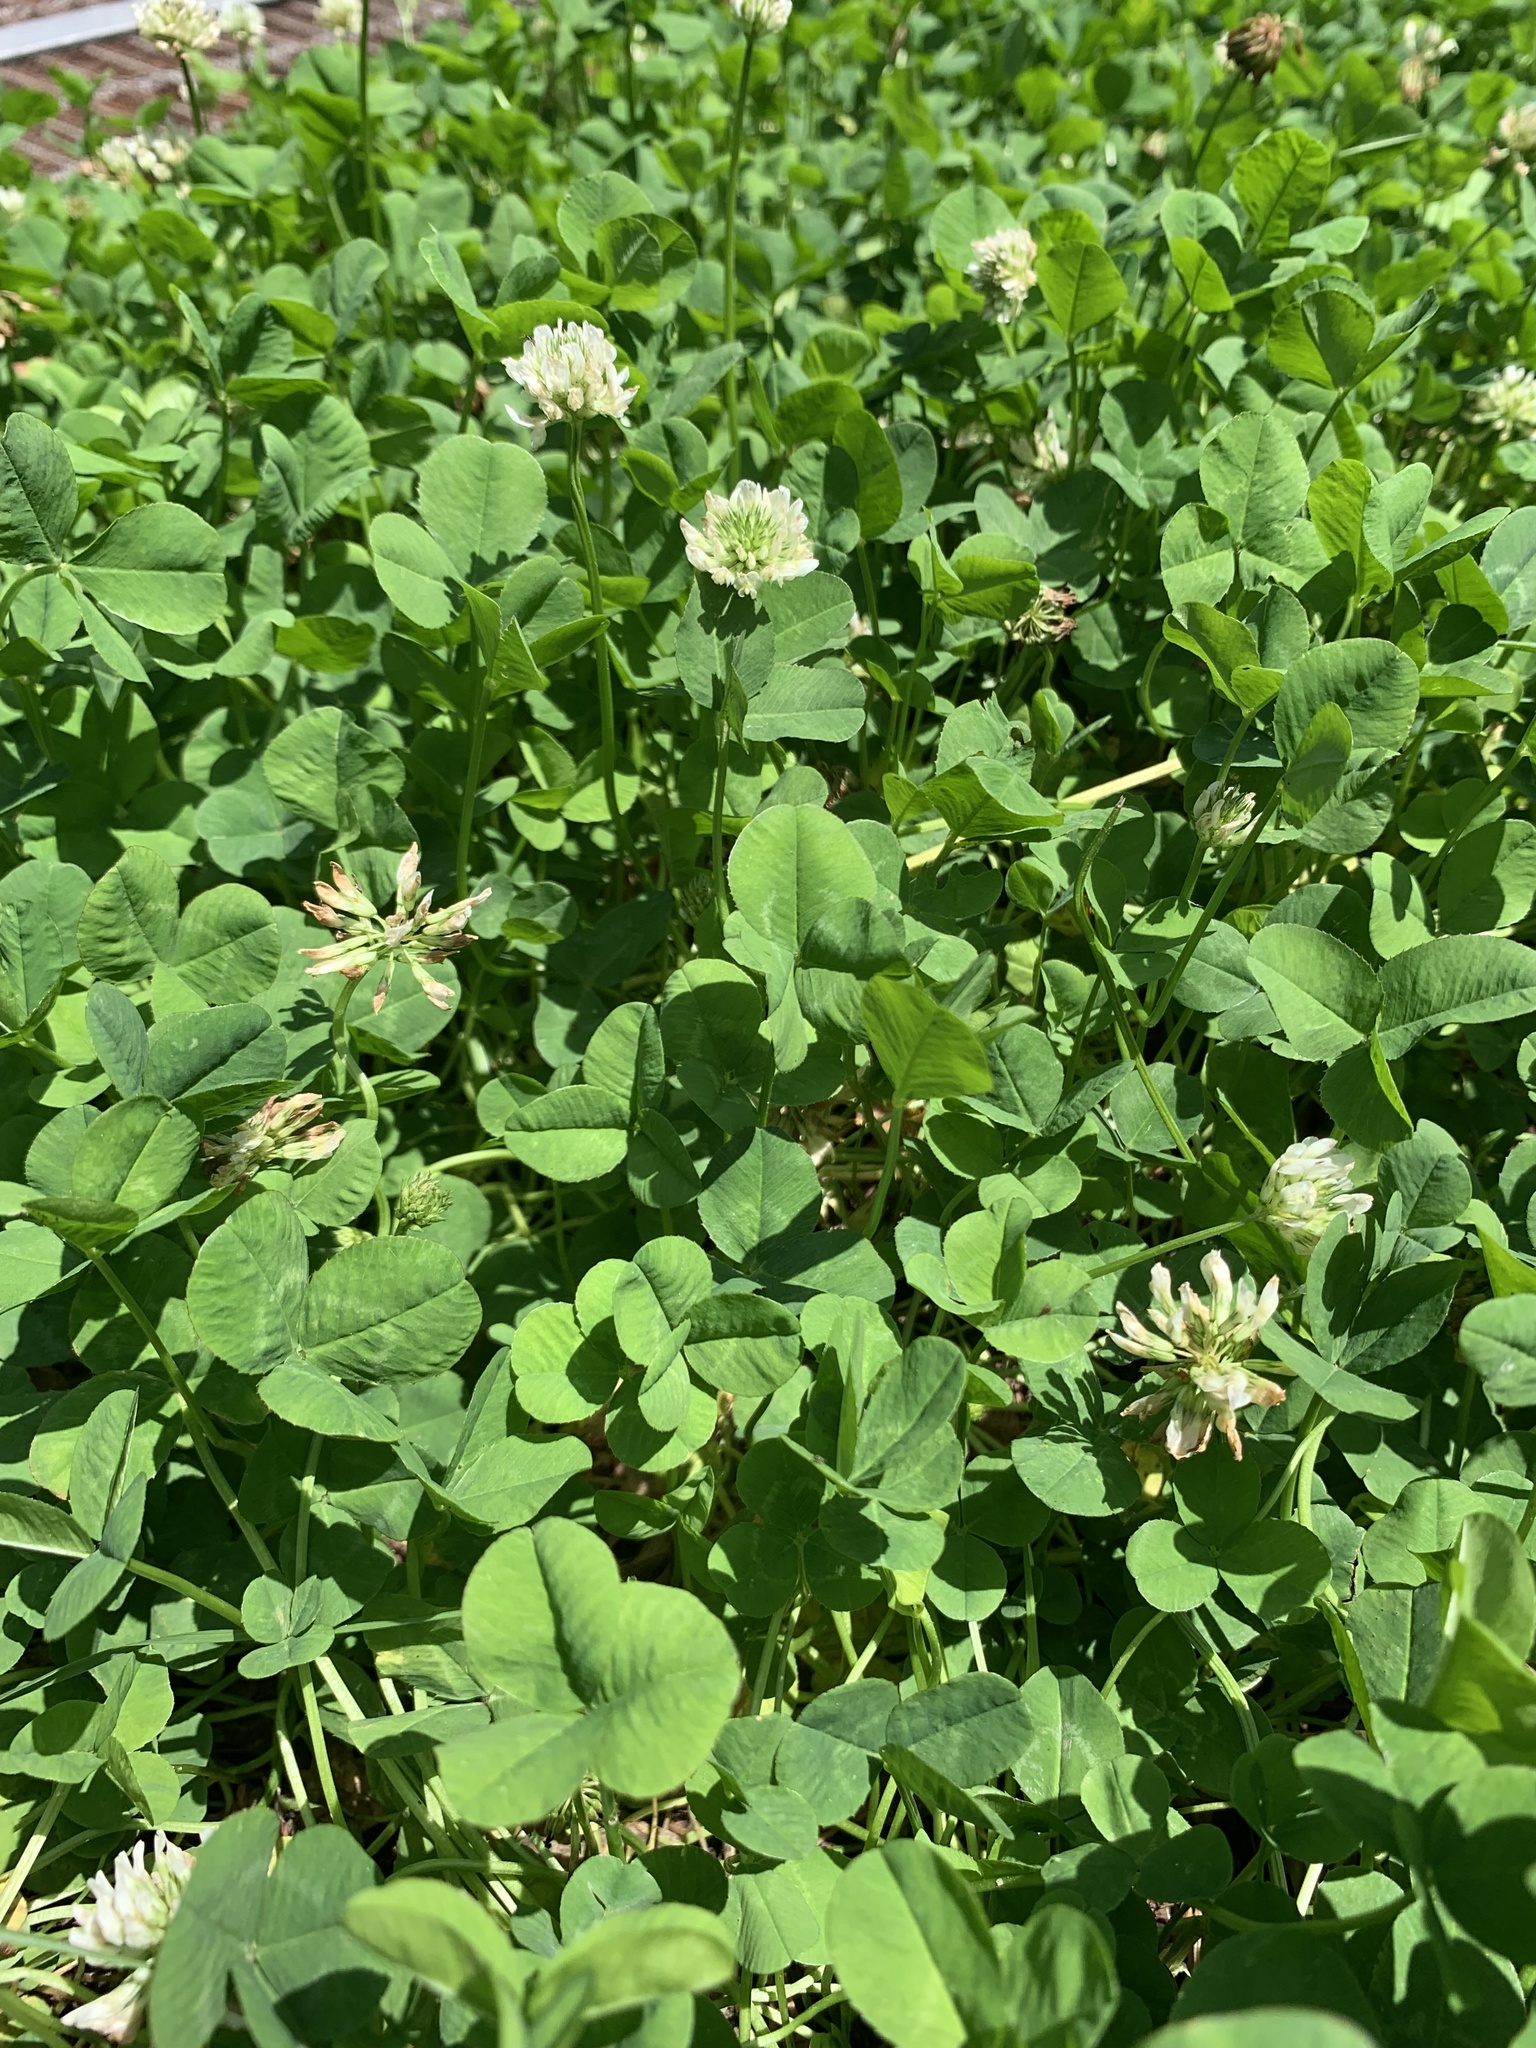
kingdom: Plantae
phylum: Tracheophyta
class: Magnoliopsida
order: Fabales
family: Fabaceae
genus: Trifolium
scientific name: Trifolium repens
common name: White clover
